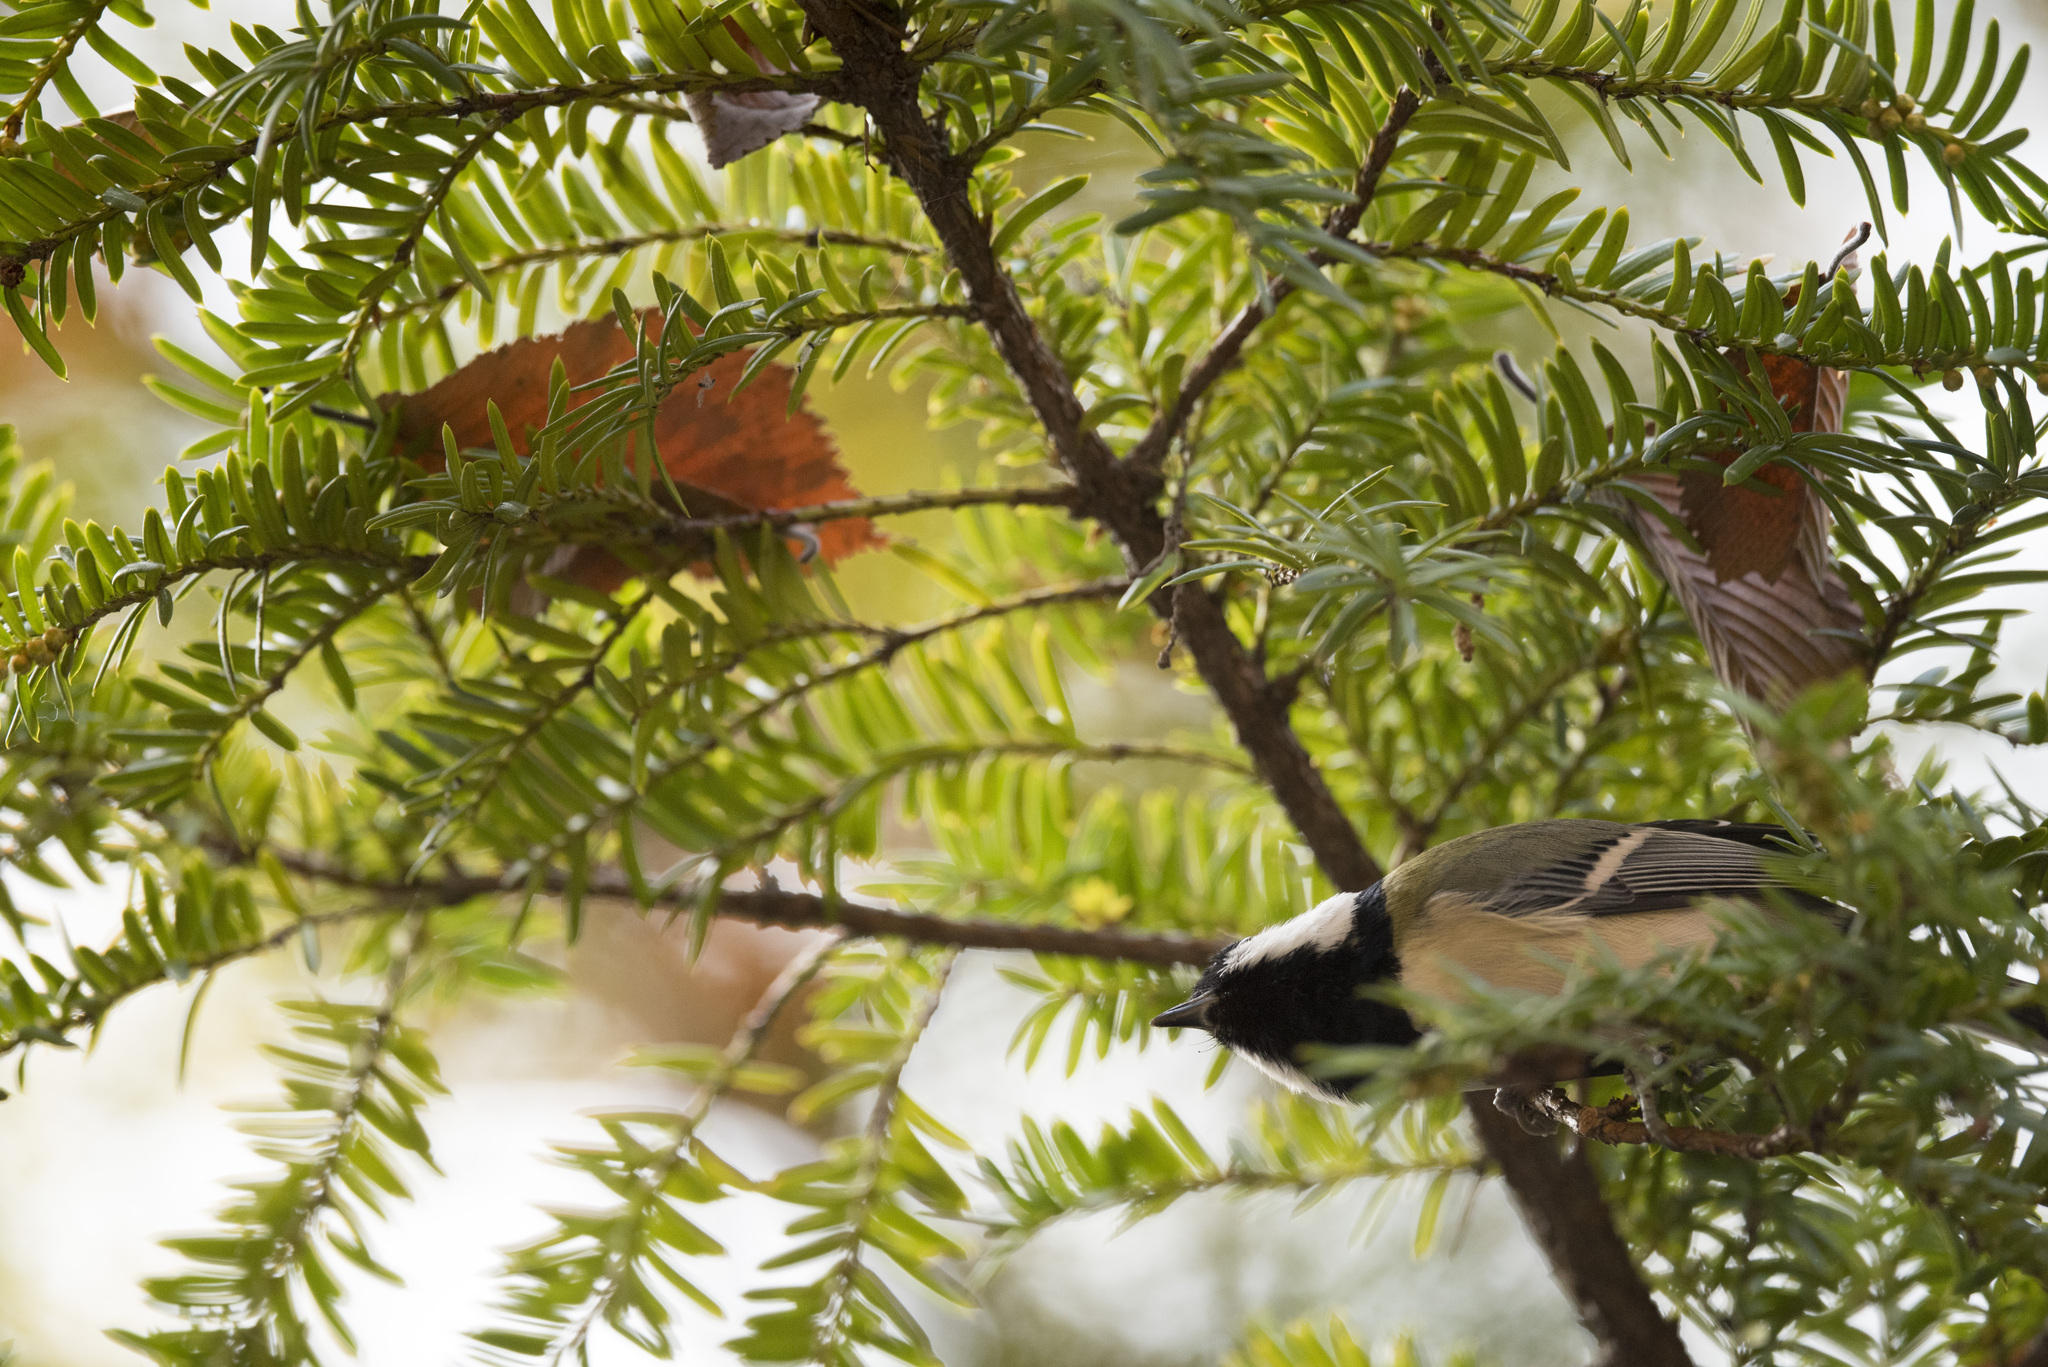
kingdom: Animalia
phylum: Chordata
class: Aves
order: Passeriformes
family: Paridae
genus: Parus
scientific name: Parus minor
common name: Japanese tit
